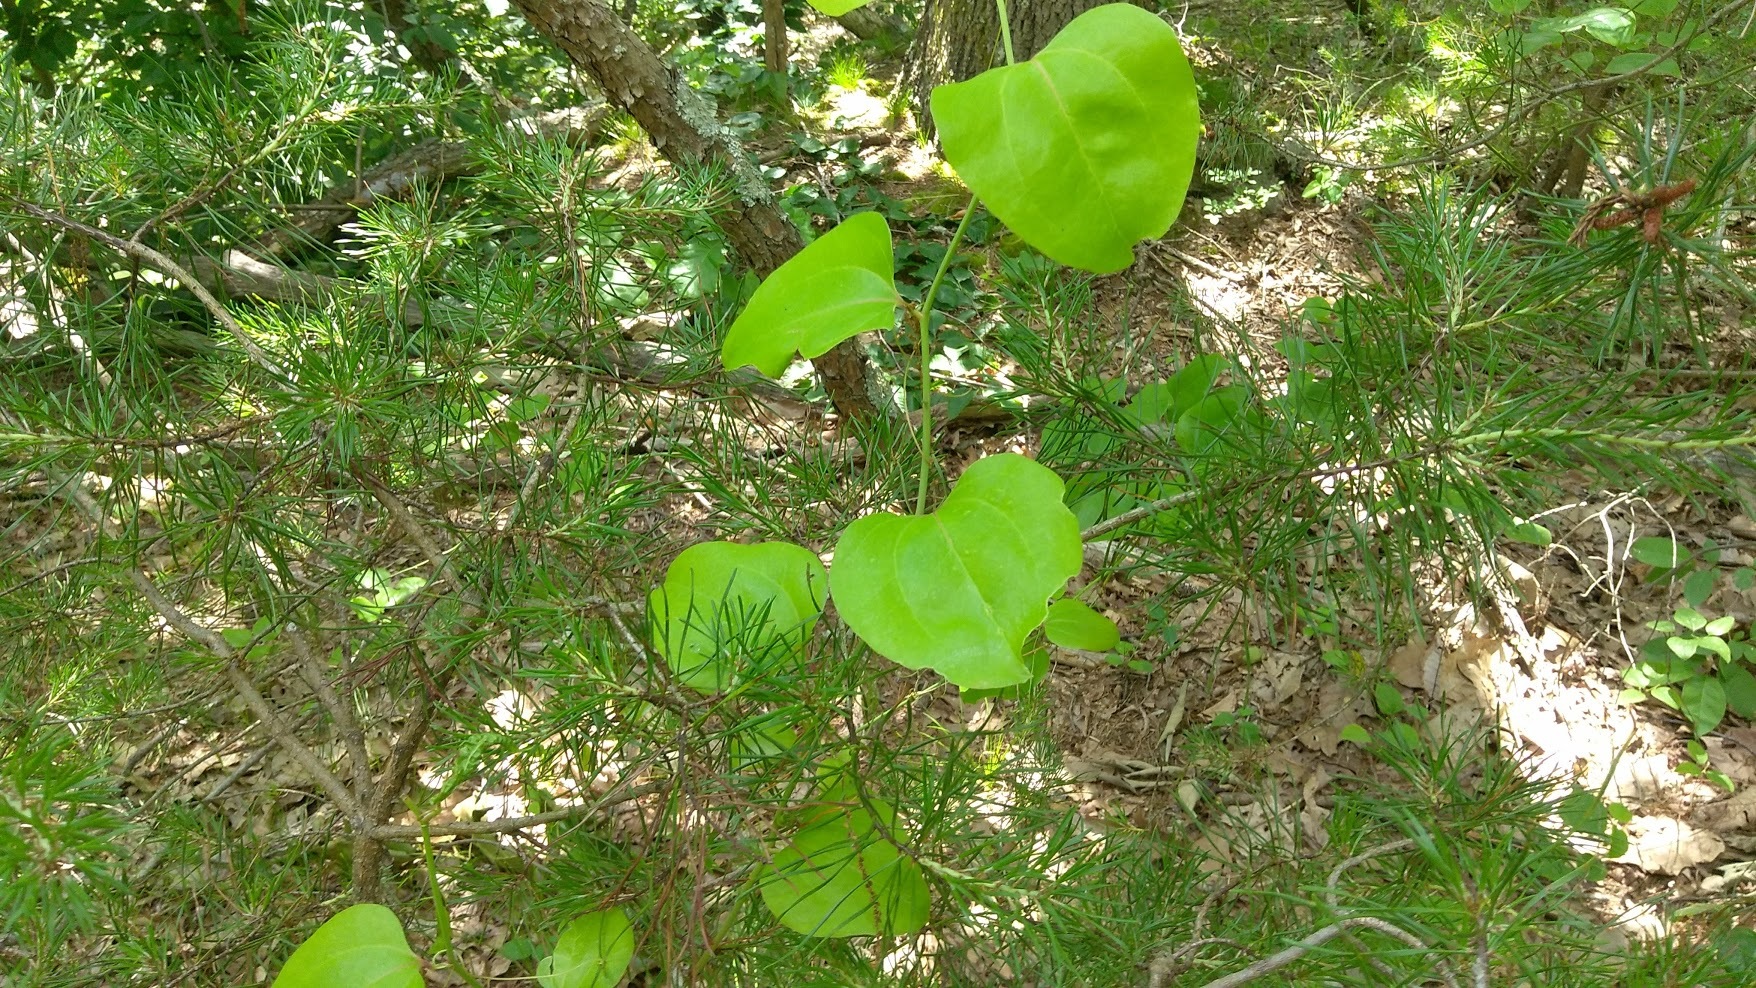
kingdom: Plantae
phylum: Tracheophyta
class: Liliopsida
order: Liliales
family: Smilacaceae
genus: Smilax
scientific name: Smilax rotundifolia
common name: Bullbriar
